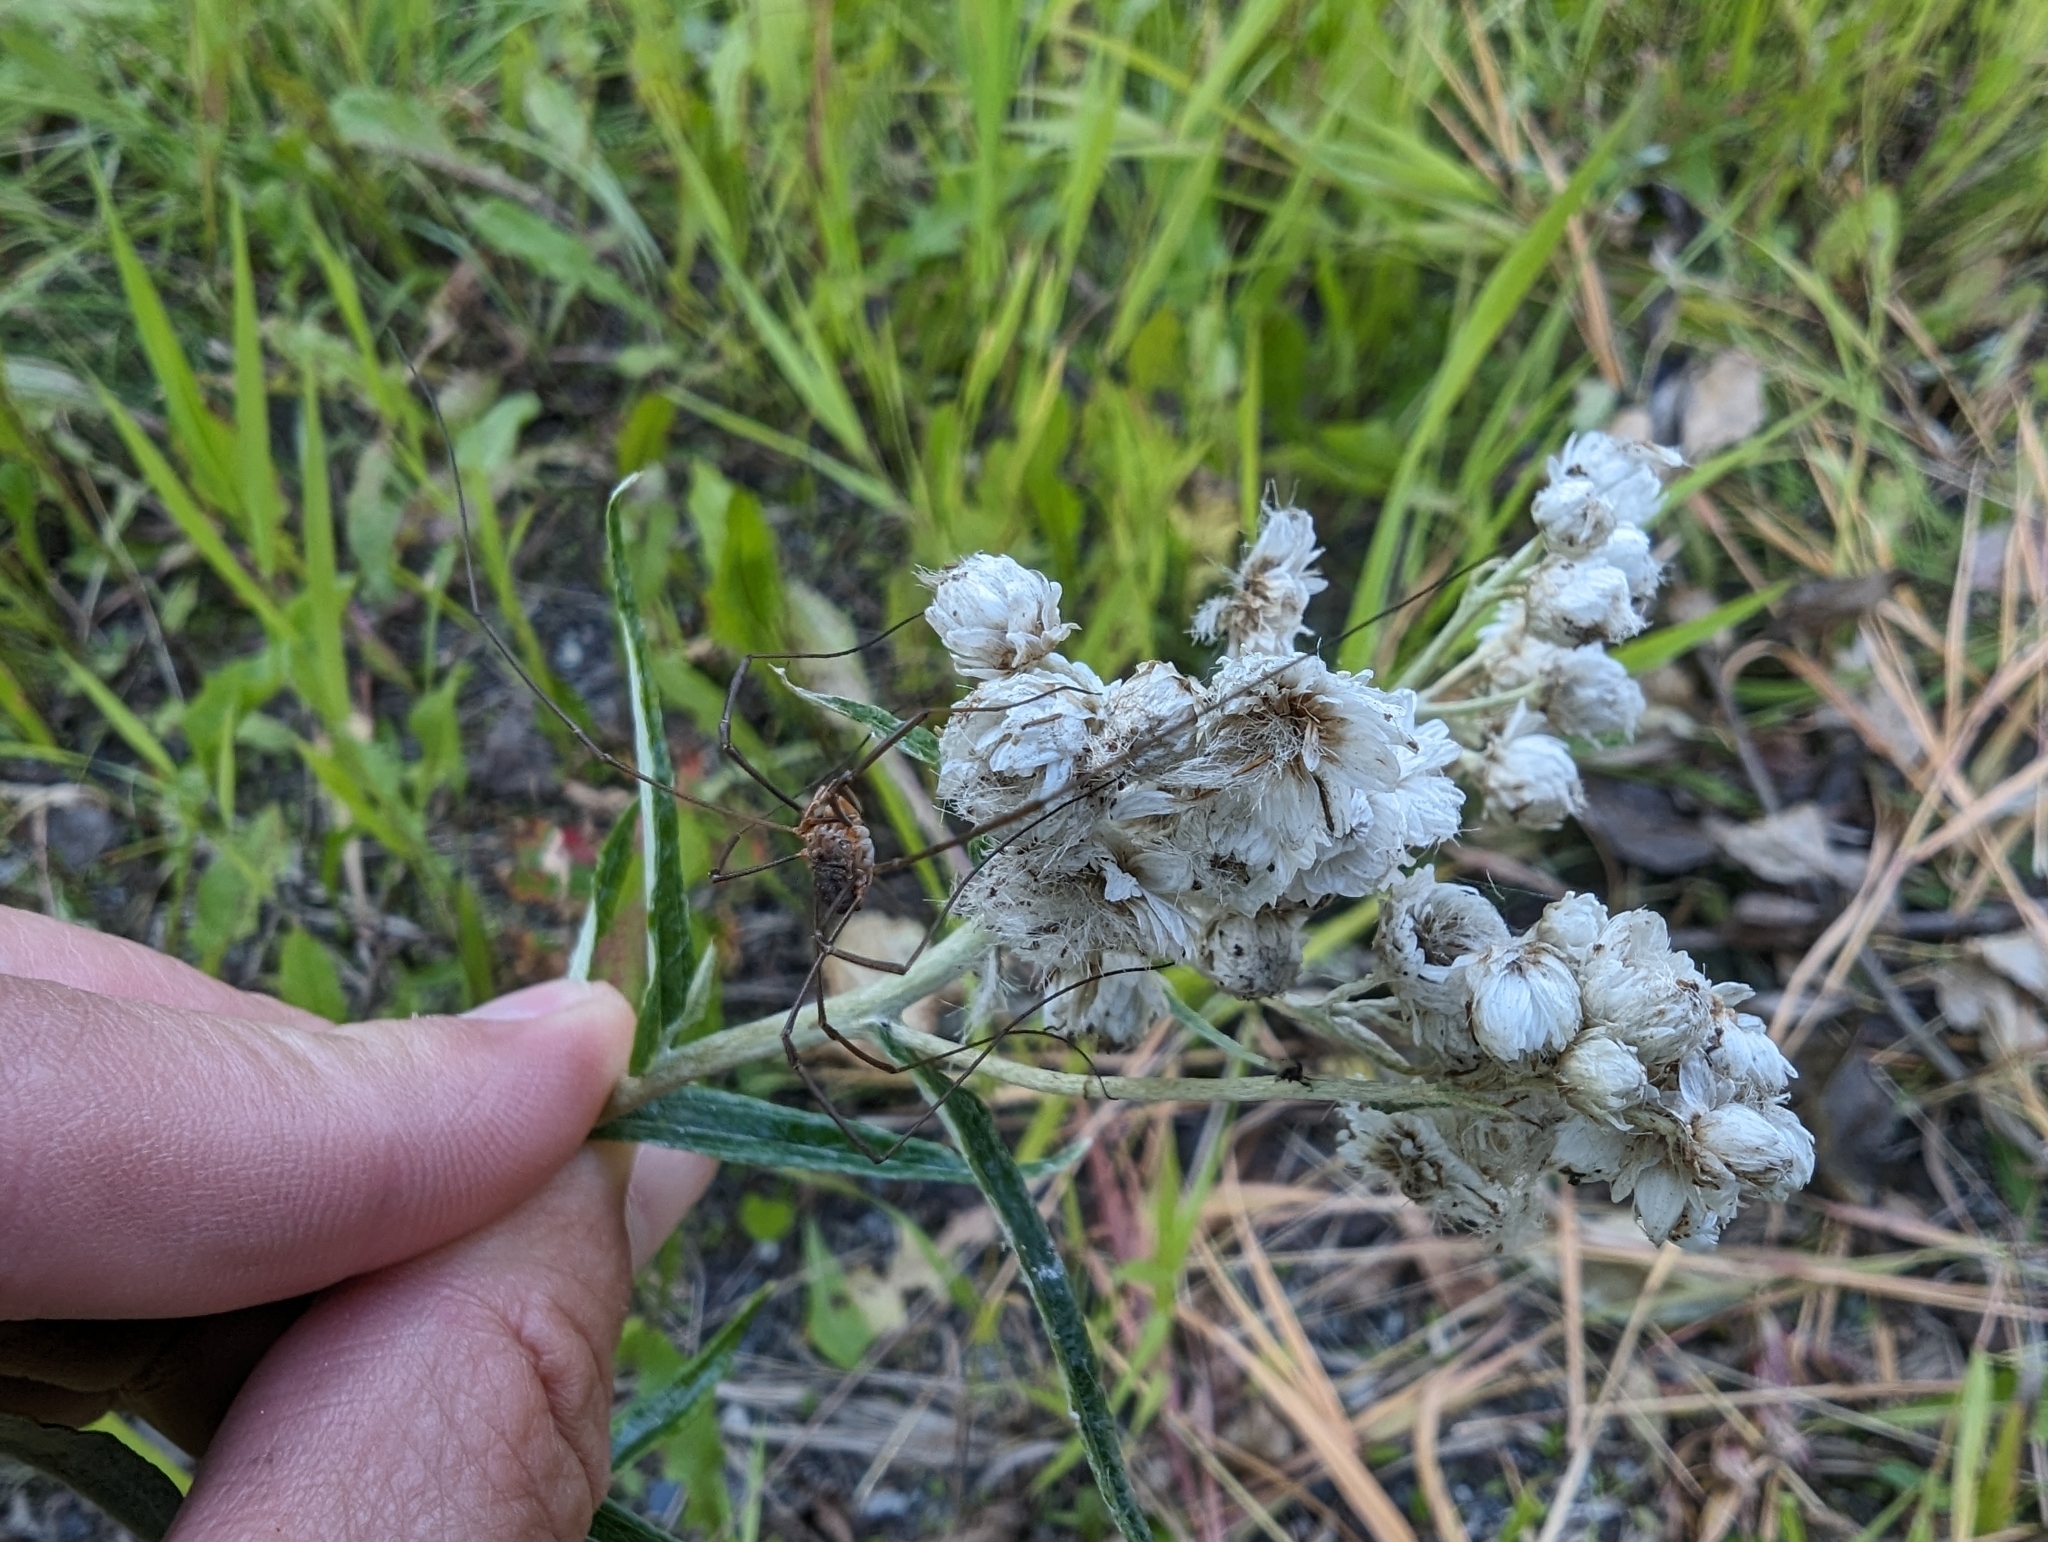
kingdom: Animalia
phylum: Arthropoda
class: Arachnida
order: Opiliones
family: Phalangiidae
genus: Phalangium
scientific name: Phalangium opilio
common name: Daddy longleg
